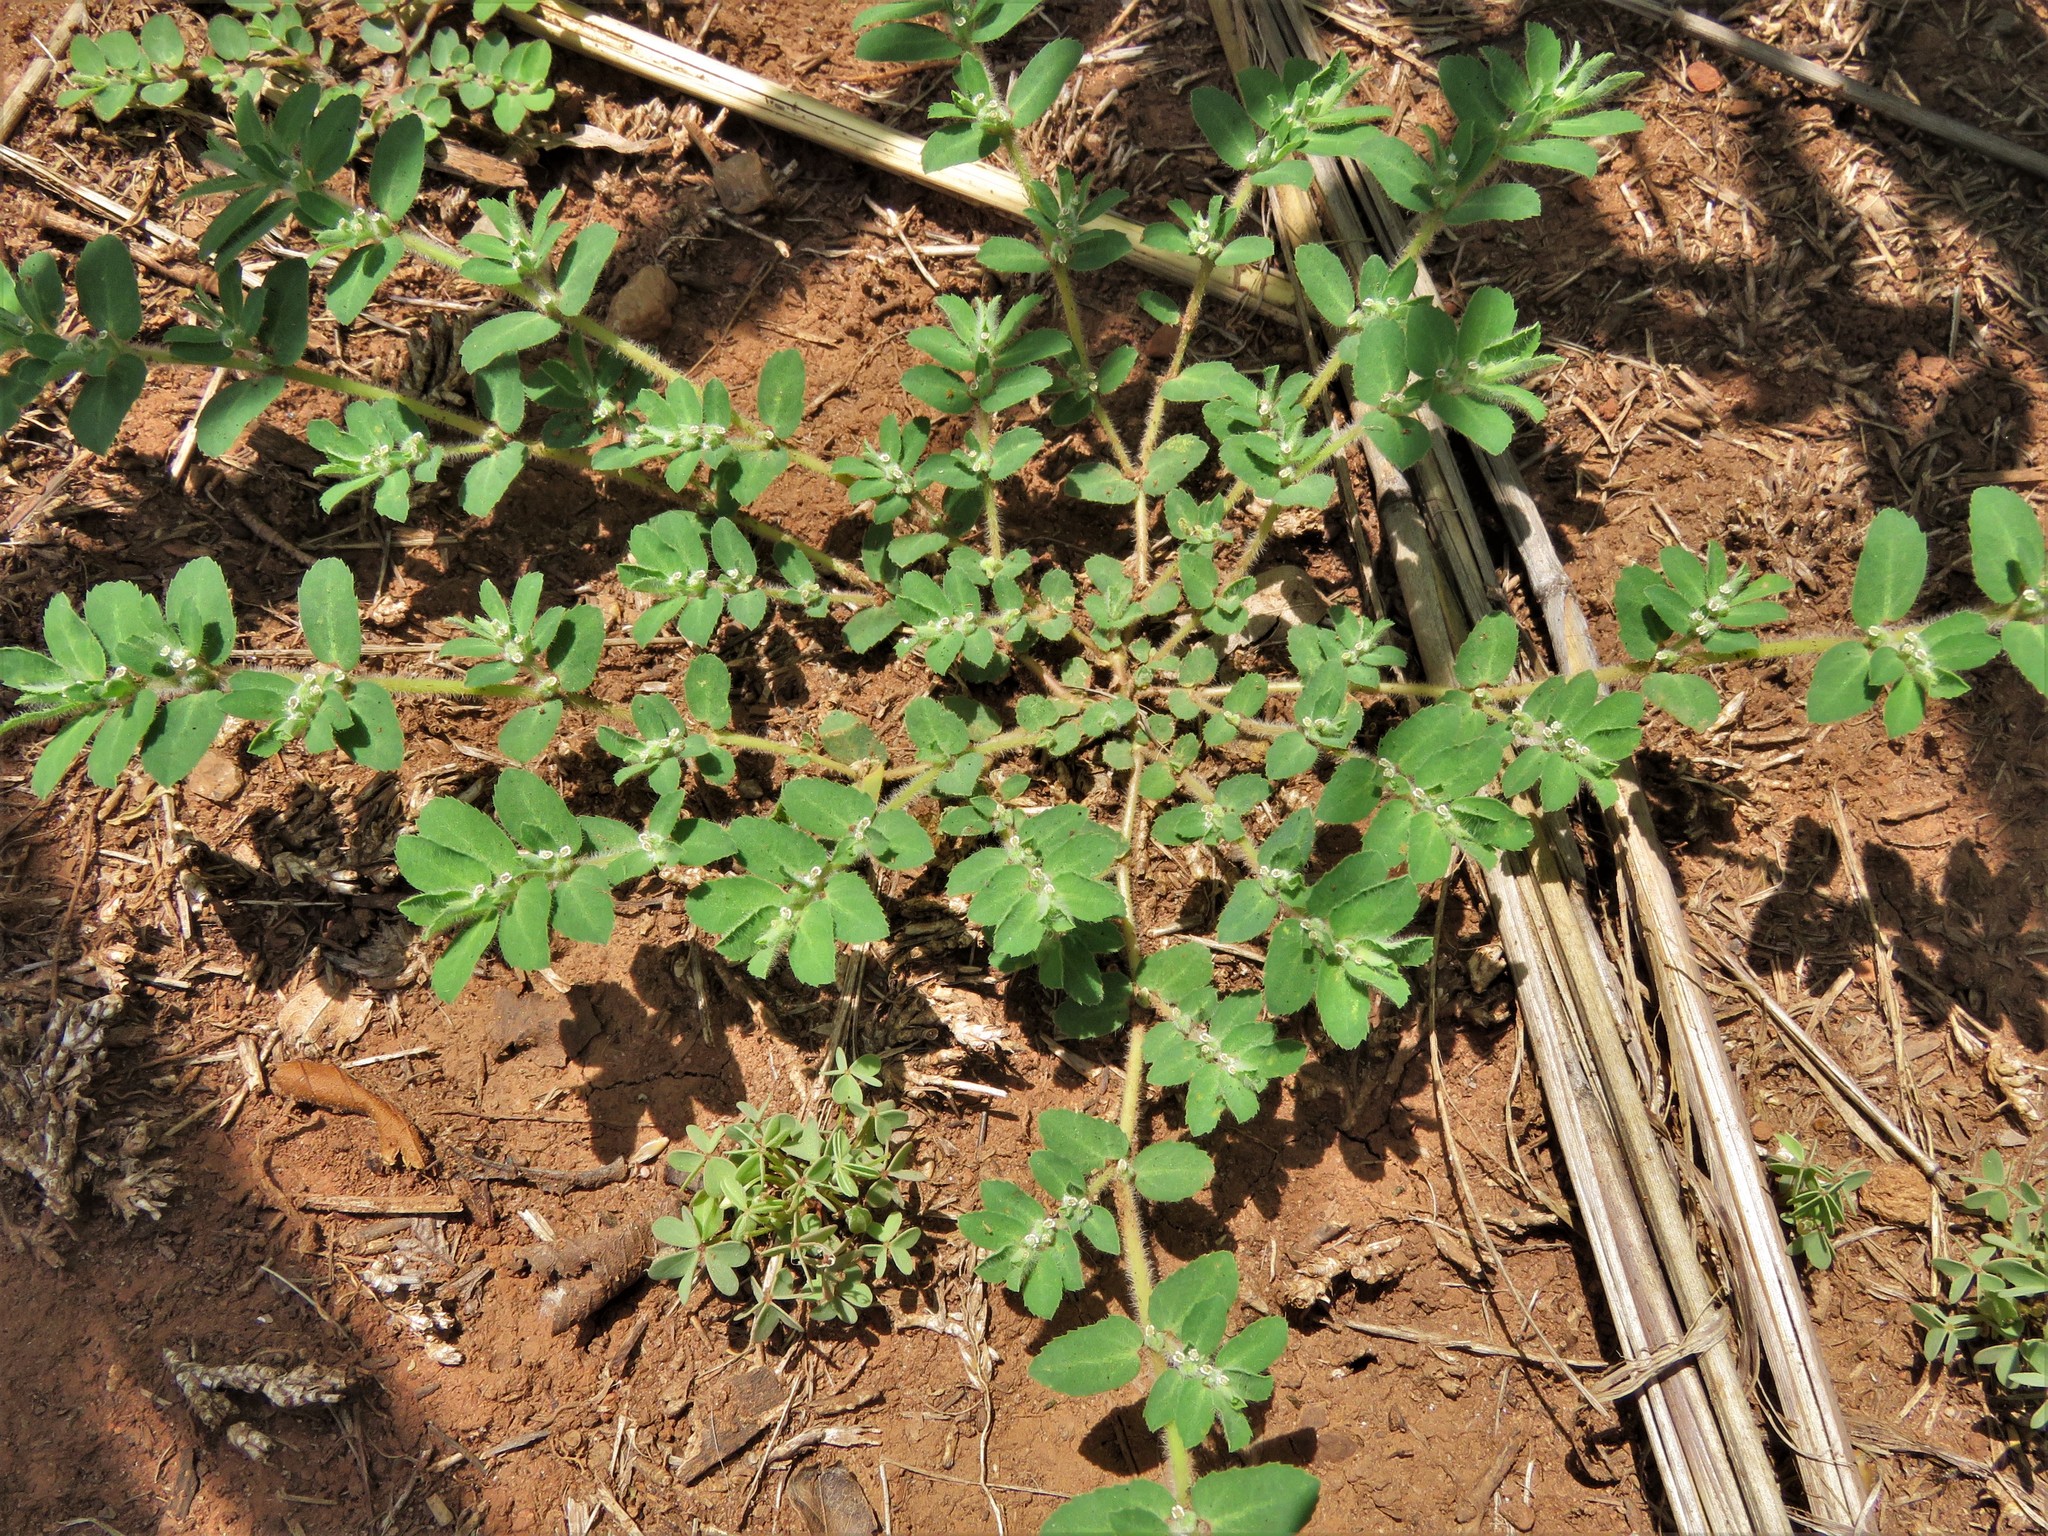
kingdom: Plantae
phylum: Tracheophyta
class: Magnoliopsida
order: Malpighiales
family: Euphorbiaceae
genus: Euphorbia
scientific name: Euphorbia stictospora
